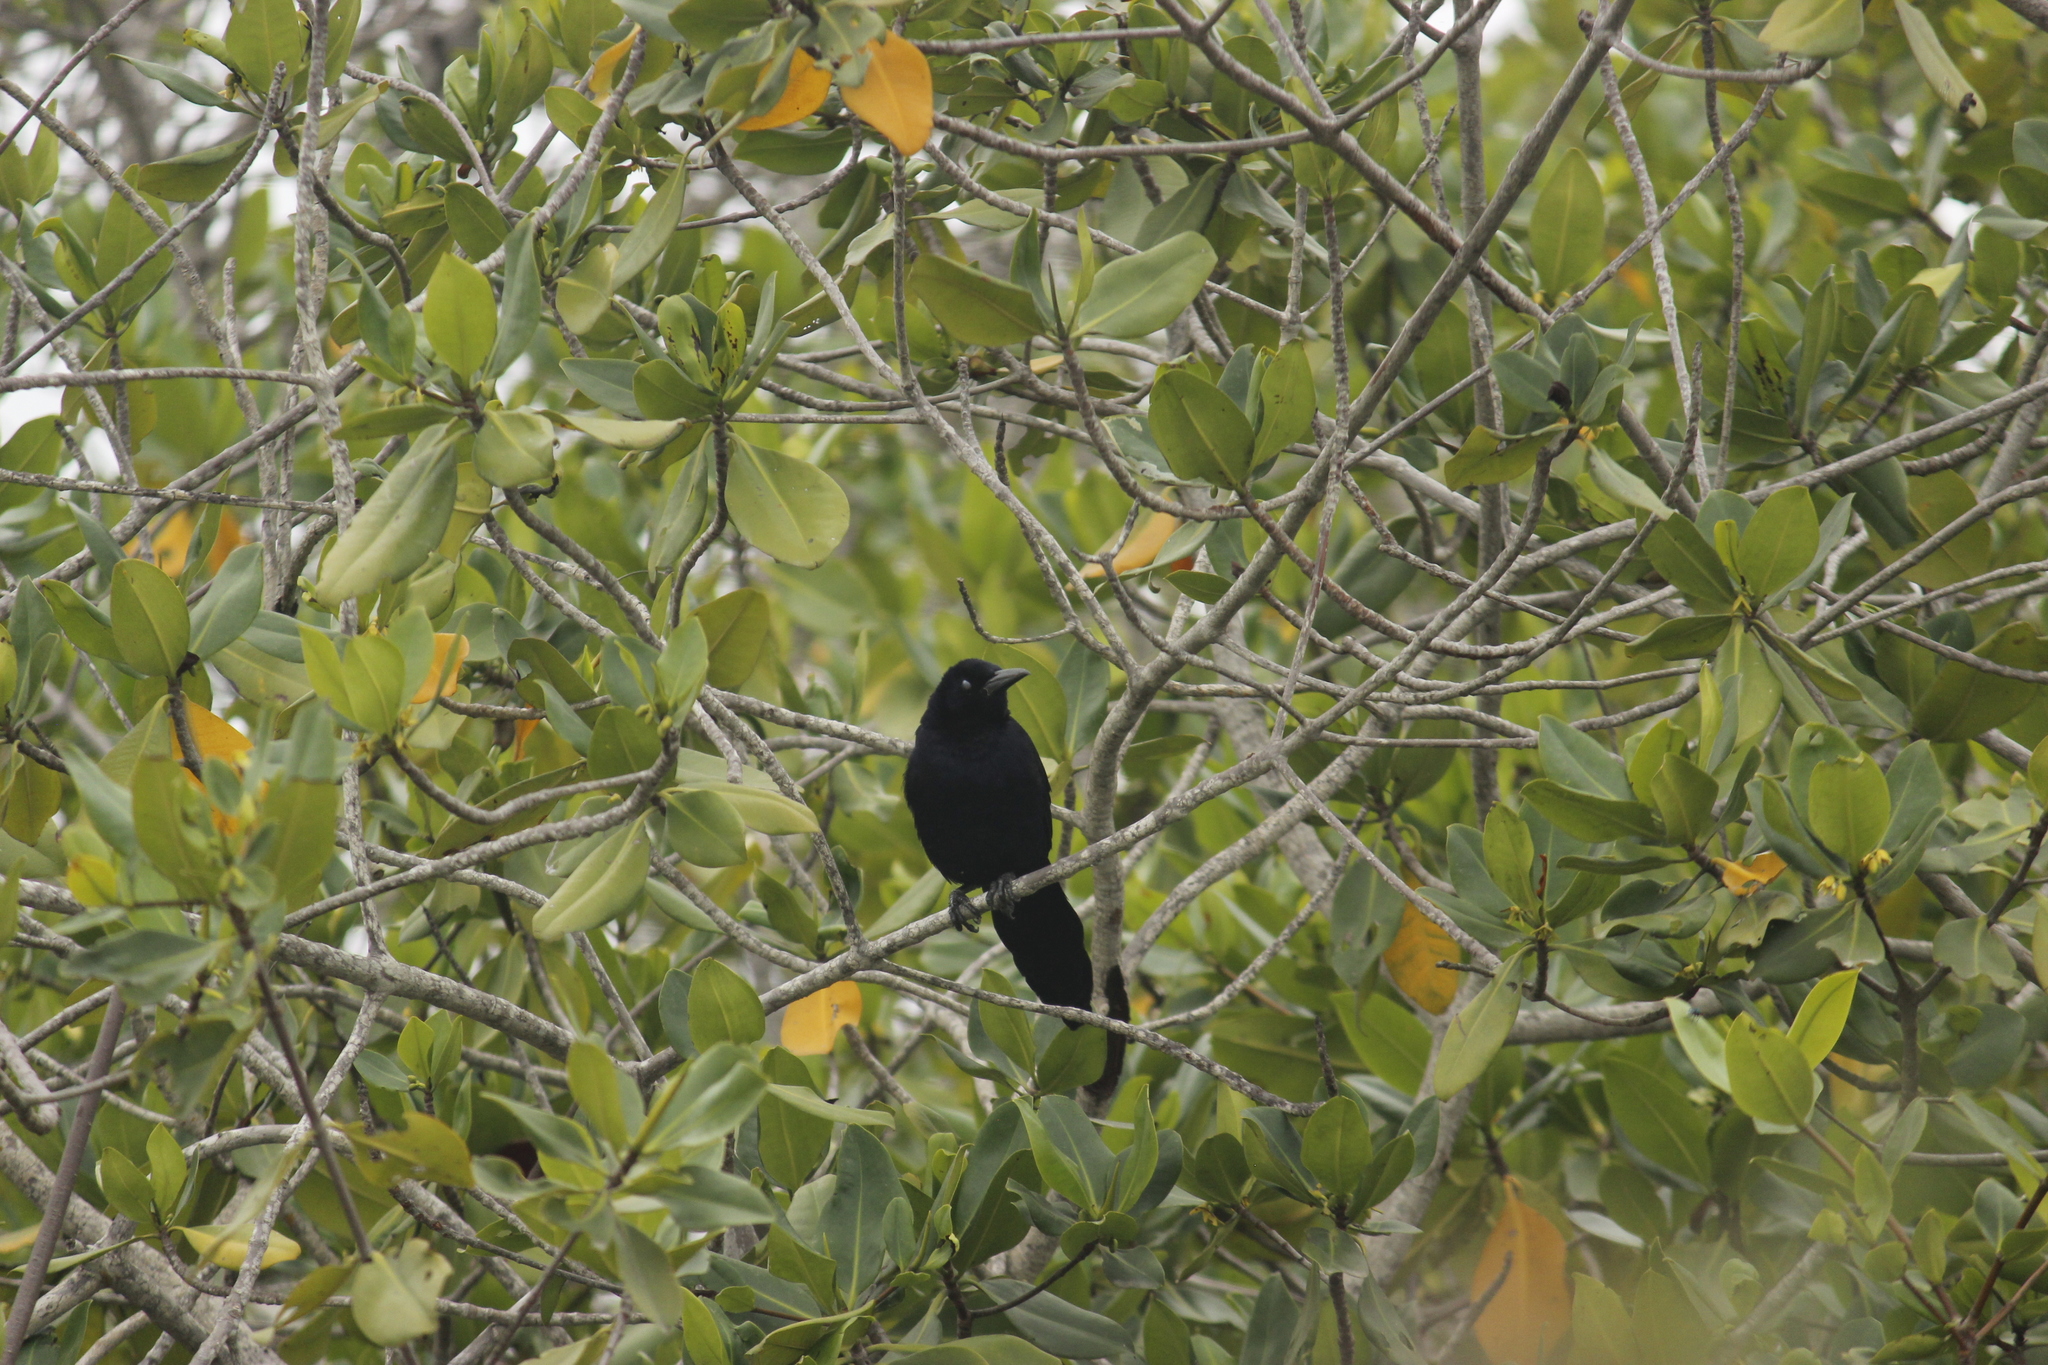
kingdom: Animalia
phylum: Chordata
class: Aves
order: Passeriformes
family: Icteridae
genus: Quiscalus
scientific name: Quiscalus mexicanus
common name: Great-tailed grackle
